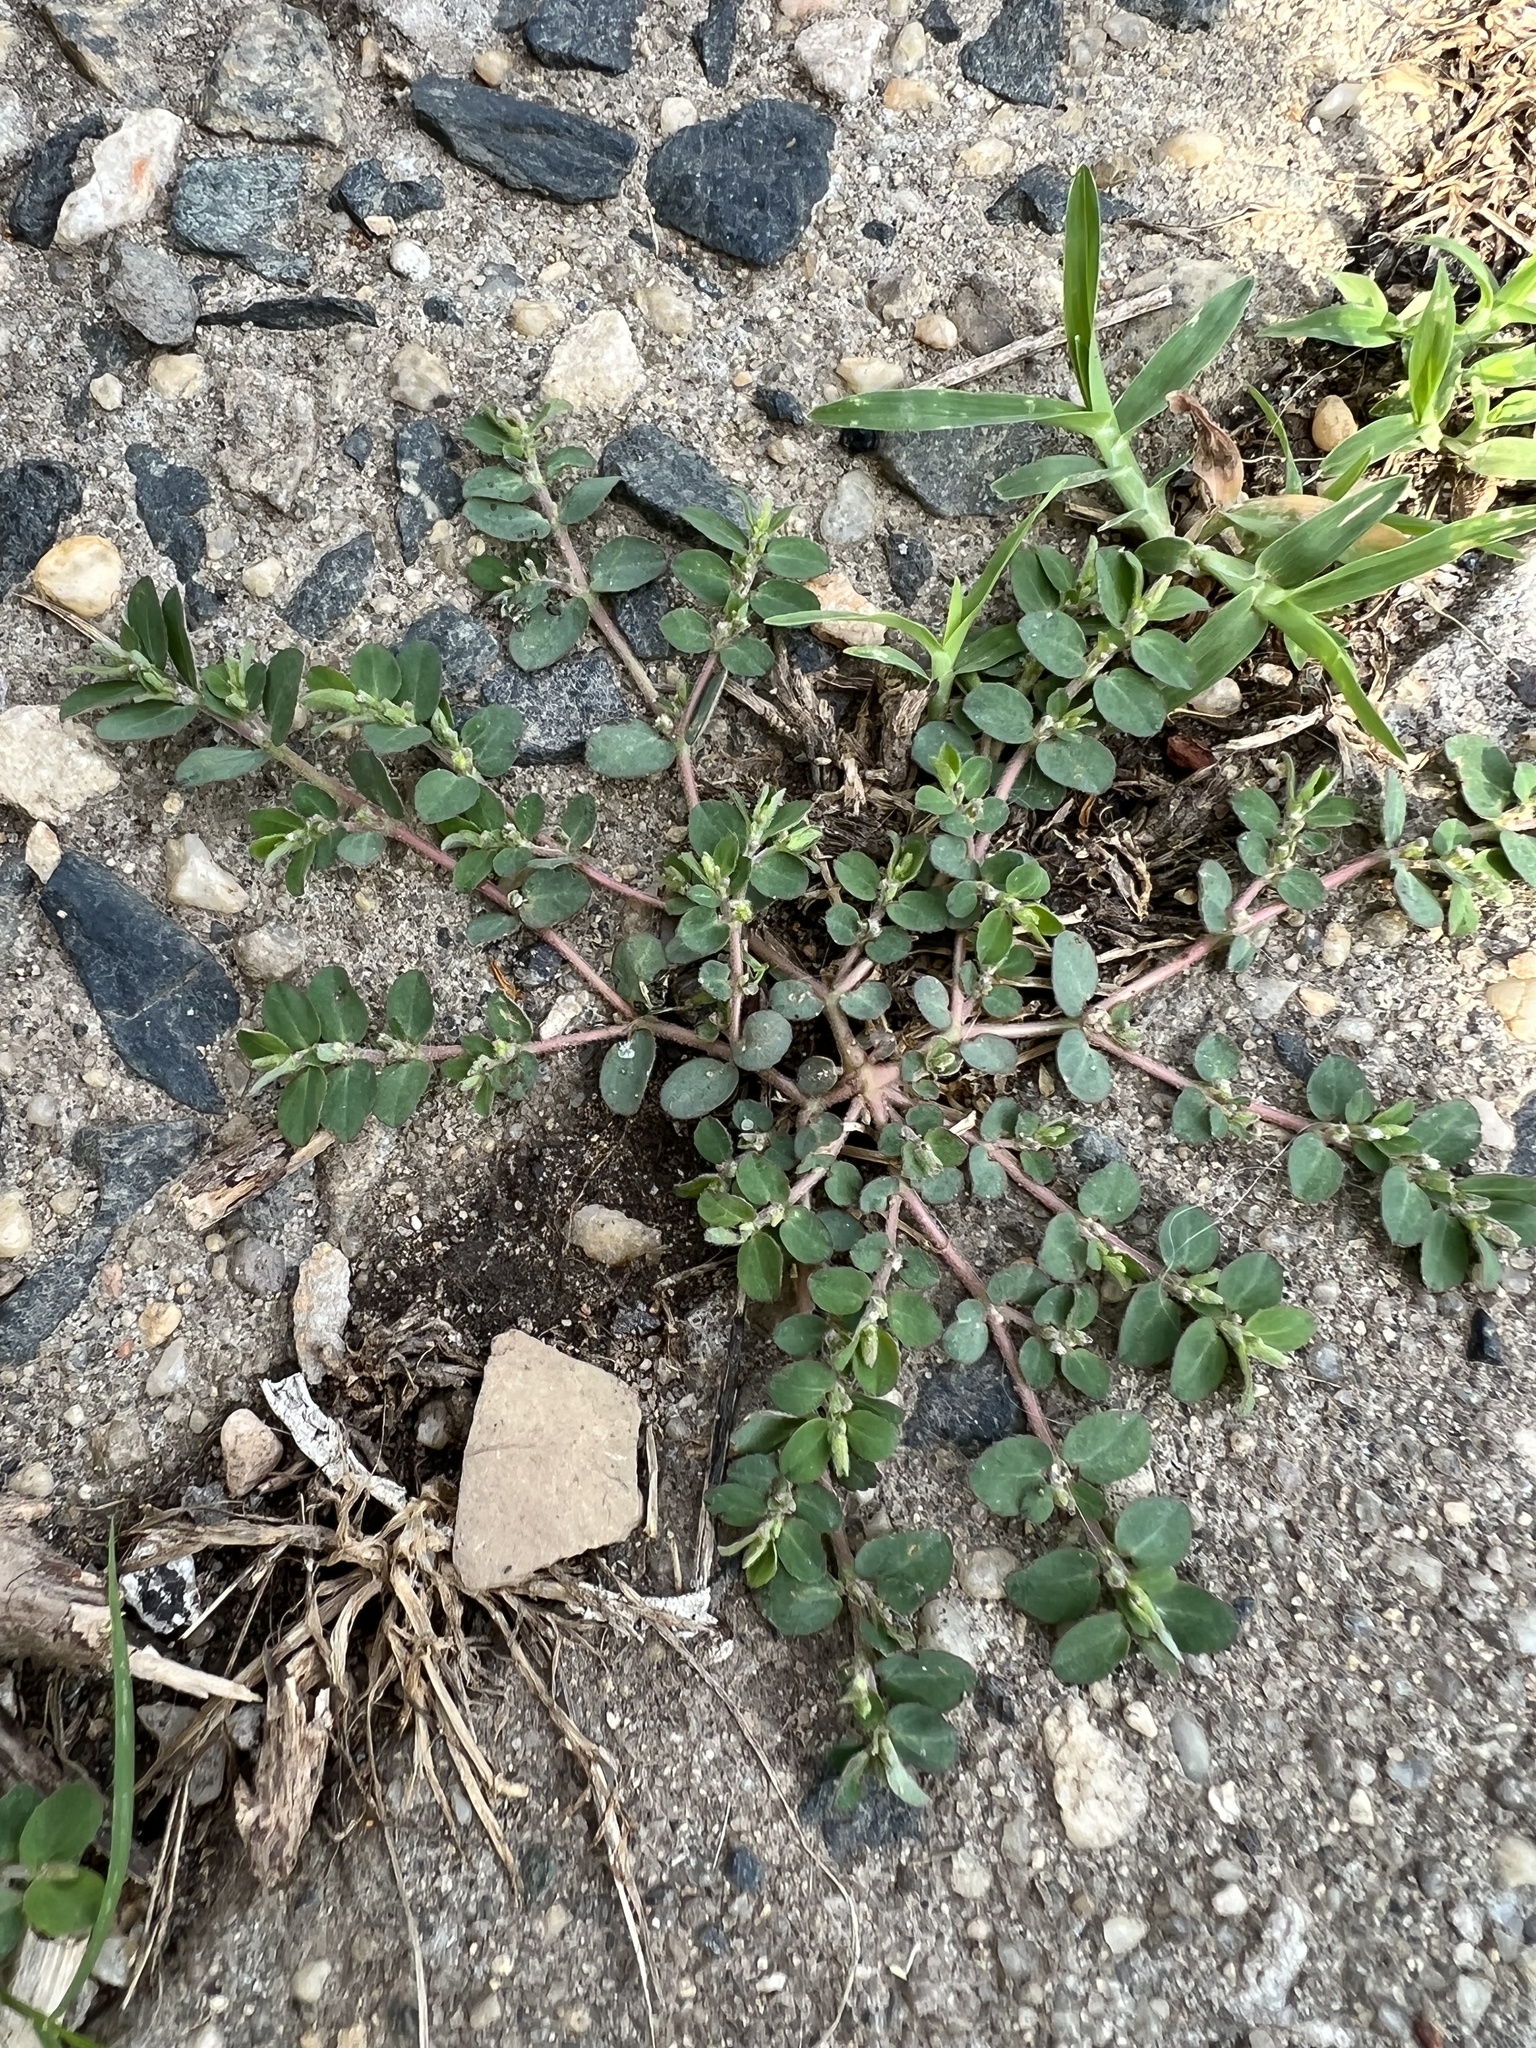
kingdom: Plantae
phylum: Tracheophyta
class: Magnoliopsida
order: Malpighiales
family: Euphorbiaceae
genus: Euphorbia
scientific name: Euphorbia prostrata
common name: Prostrate sandmat
